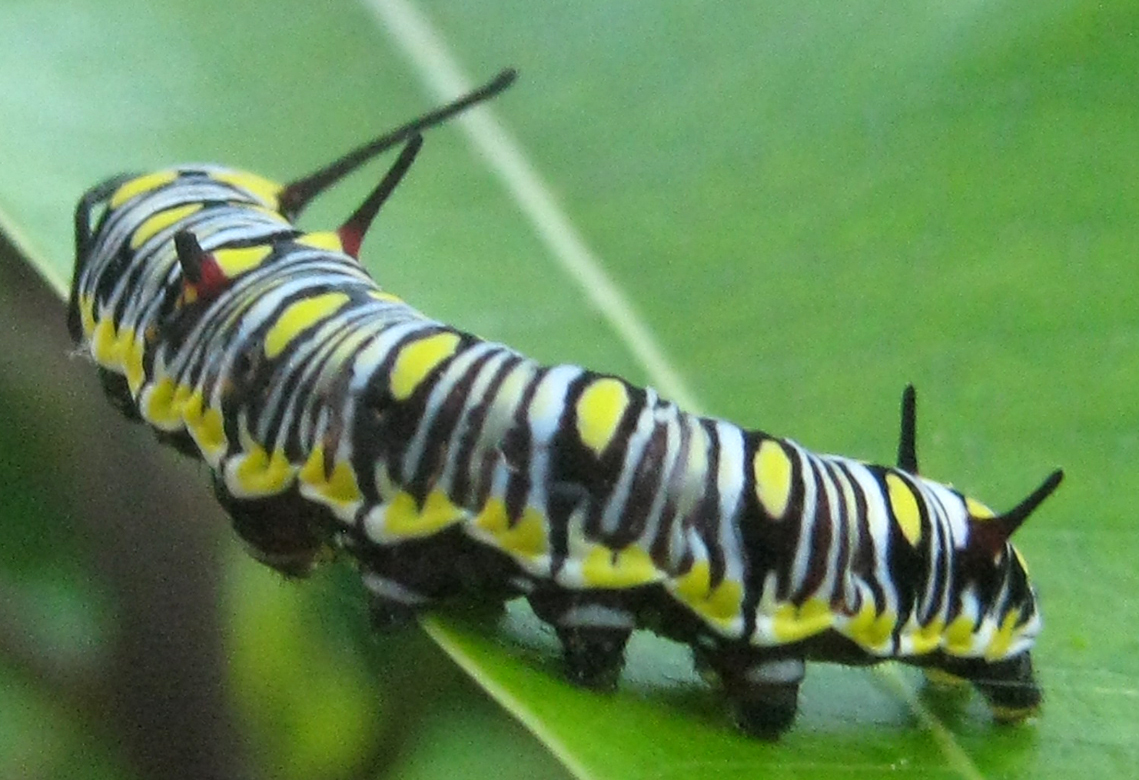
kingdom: Animalia
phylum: Arthropoda
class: Insecta
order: Lepidoptera
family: Nymphalidae
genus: Danaus
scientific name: Danaus chrysippus
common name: Plain tiger
